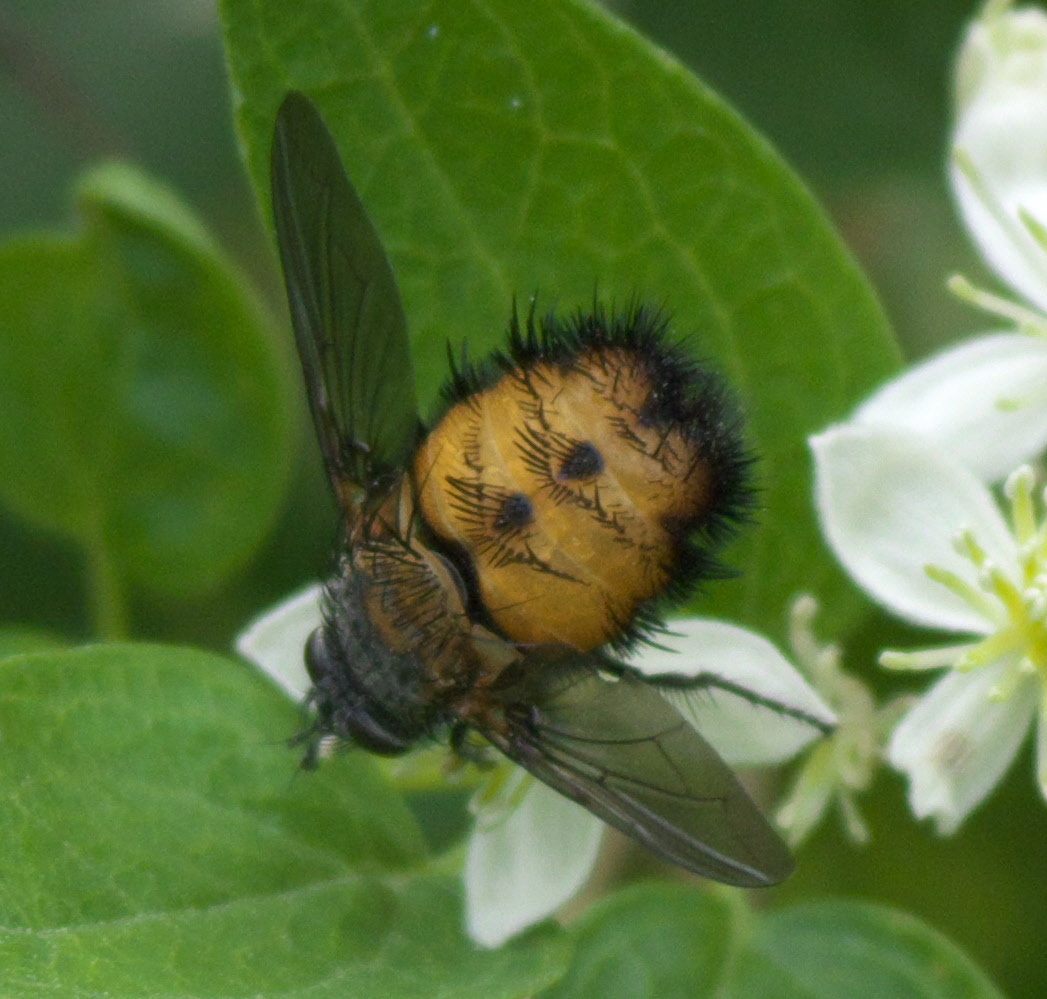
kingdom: Animalia
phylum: Arthropoda
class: Insecta
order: Diptera
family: Tachinidae
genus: Paradejeania
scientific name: Paradejeania rutilioides
